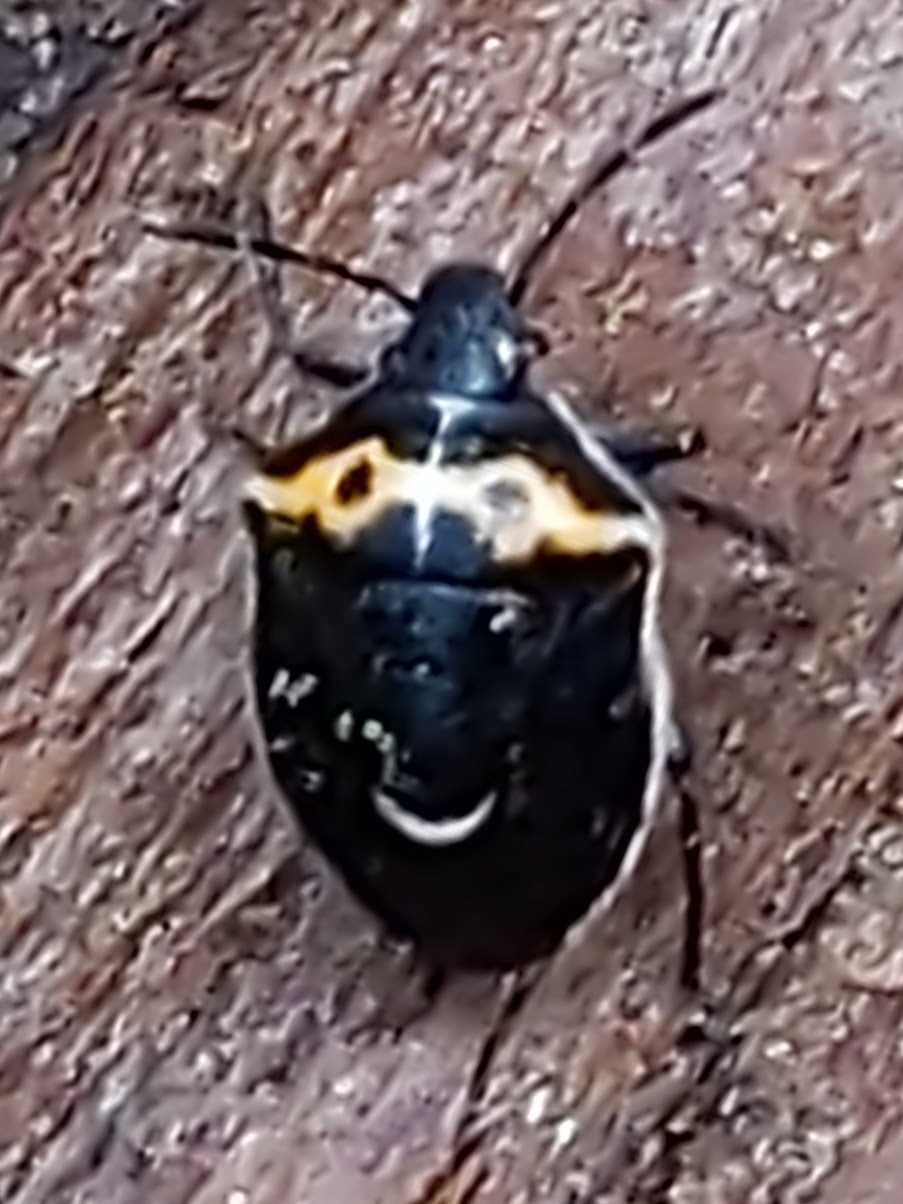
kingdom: Animalia
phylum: Arthropoda
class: Insecta
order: Hemiptera
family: Pentatomidae
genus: Cosmopepla
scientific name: Cosmopepla conspicillaris
